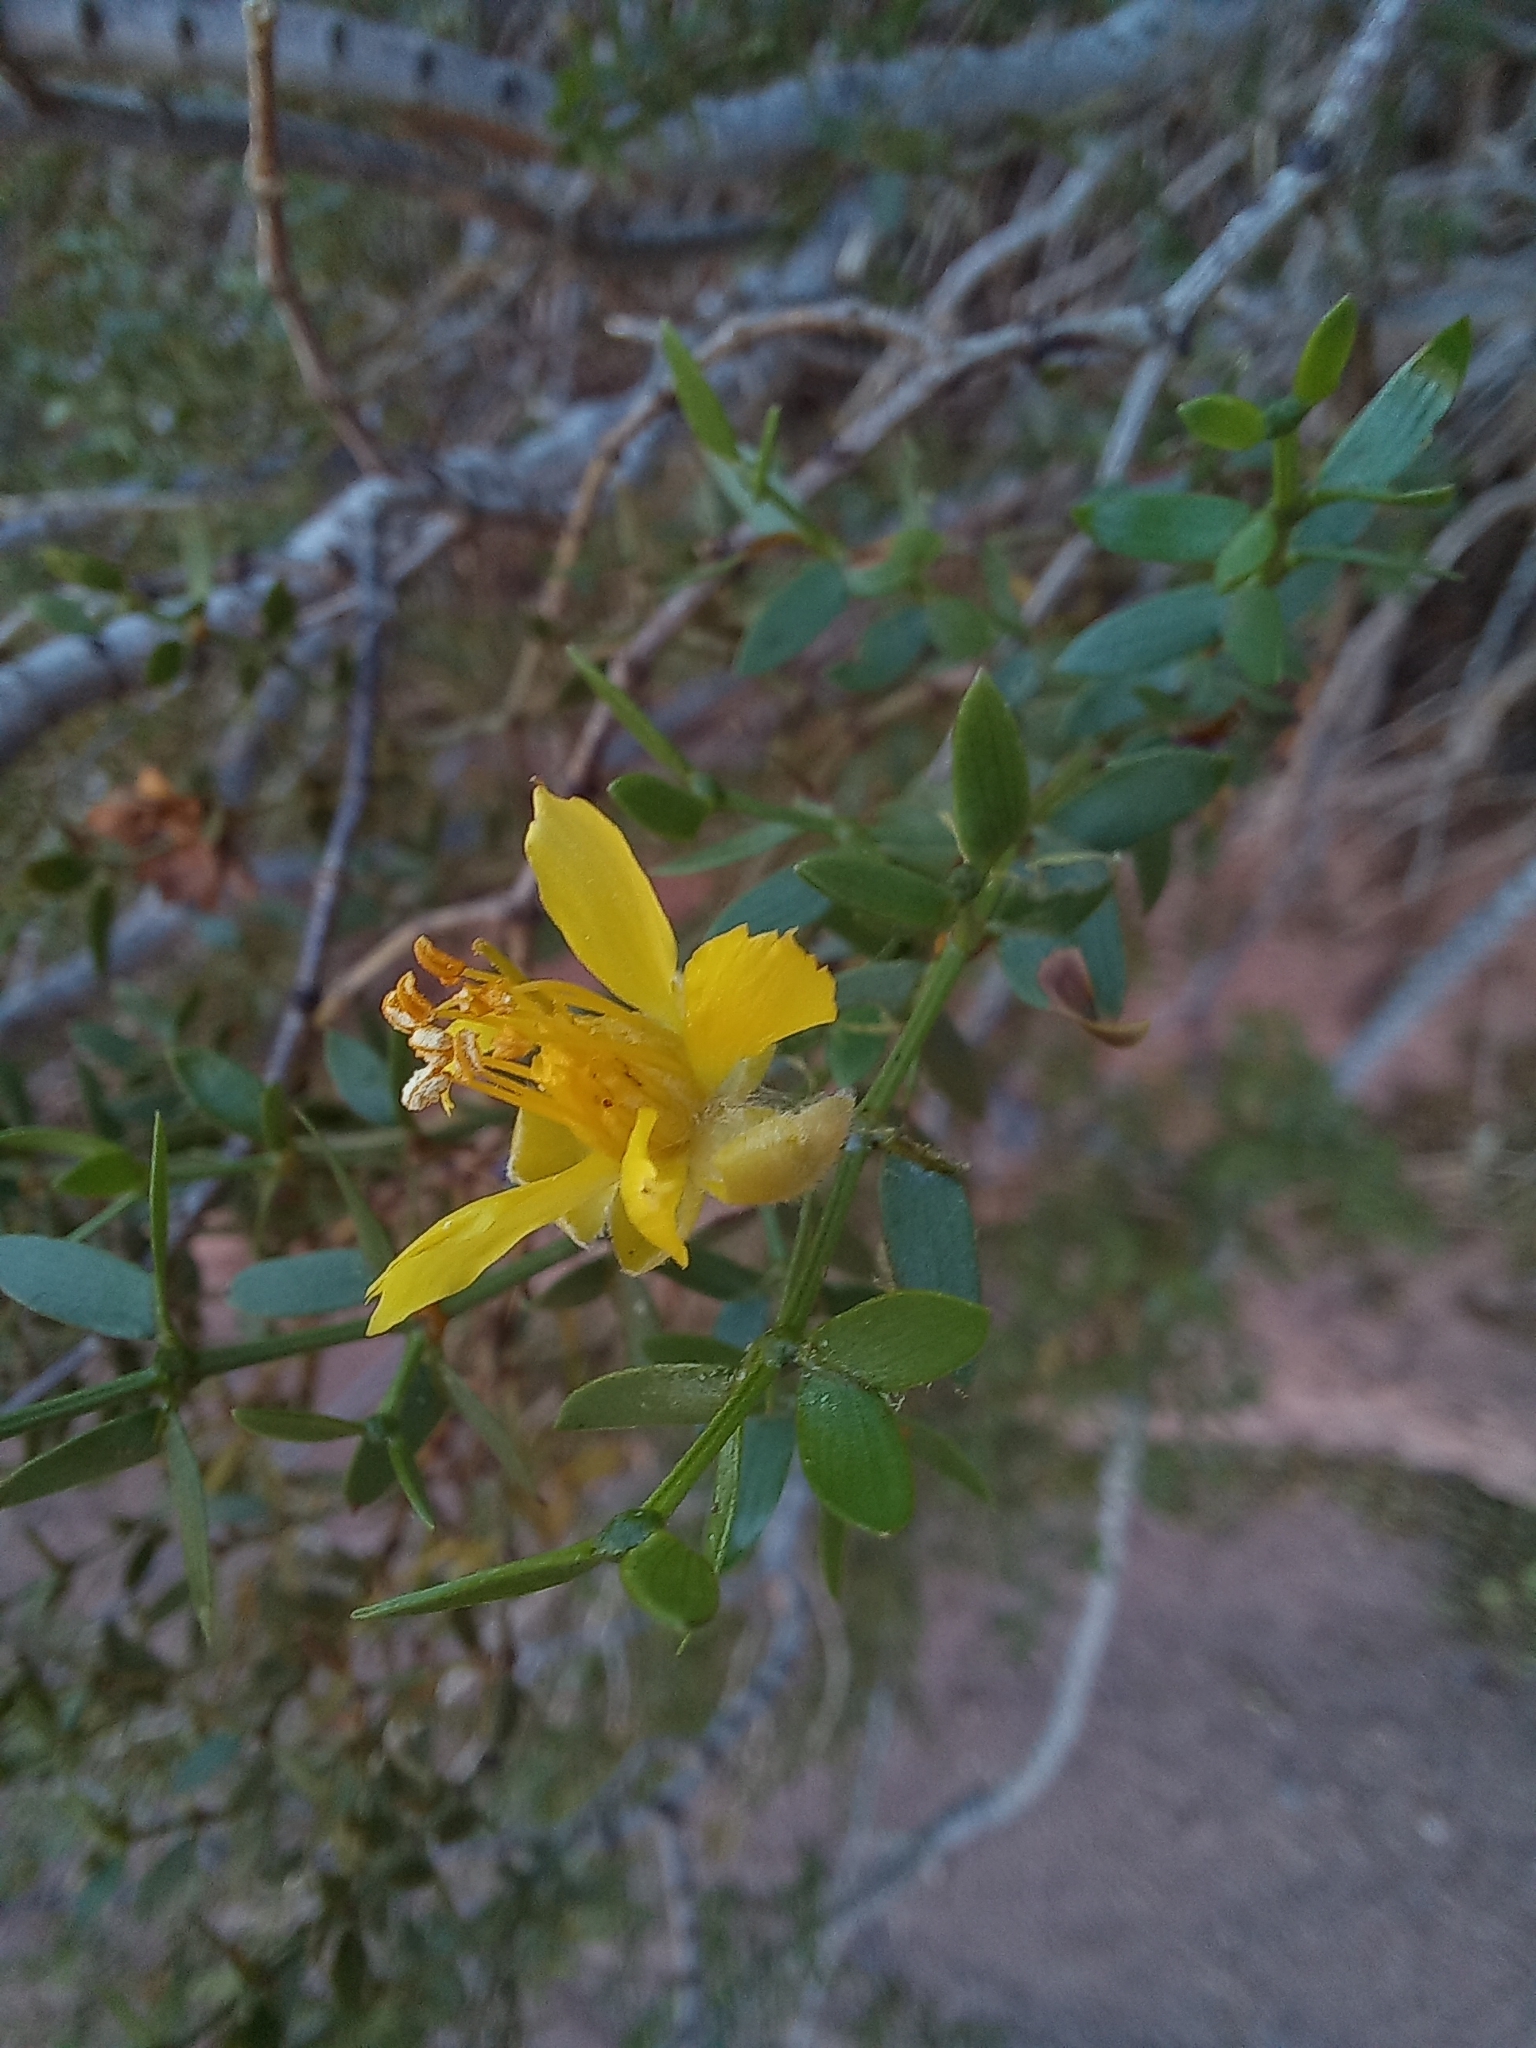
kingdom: Plantae
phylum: Tracheophyta
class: Magnoliopsida
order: Zygophyllales
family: Zygophyllaceae
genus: Larrea
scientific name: Larrea divaricata
